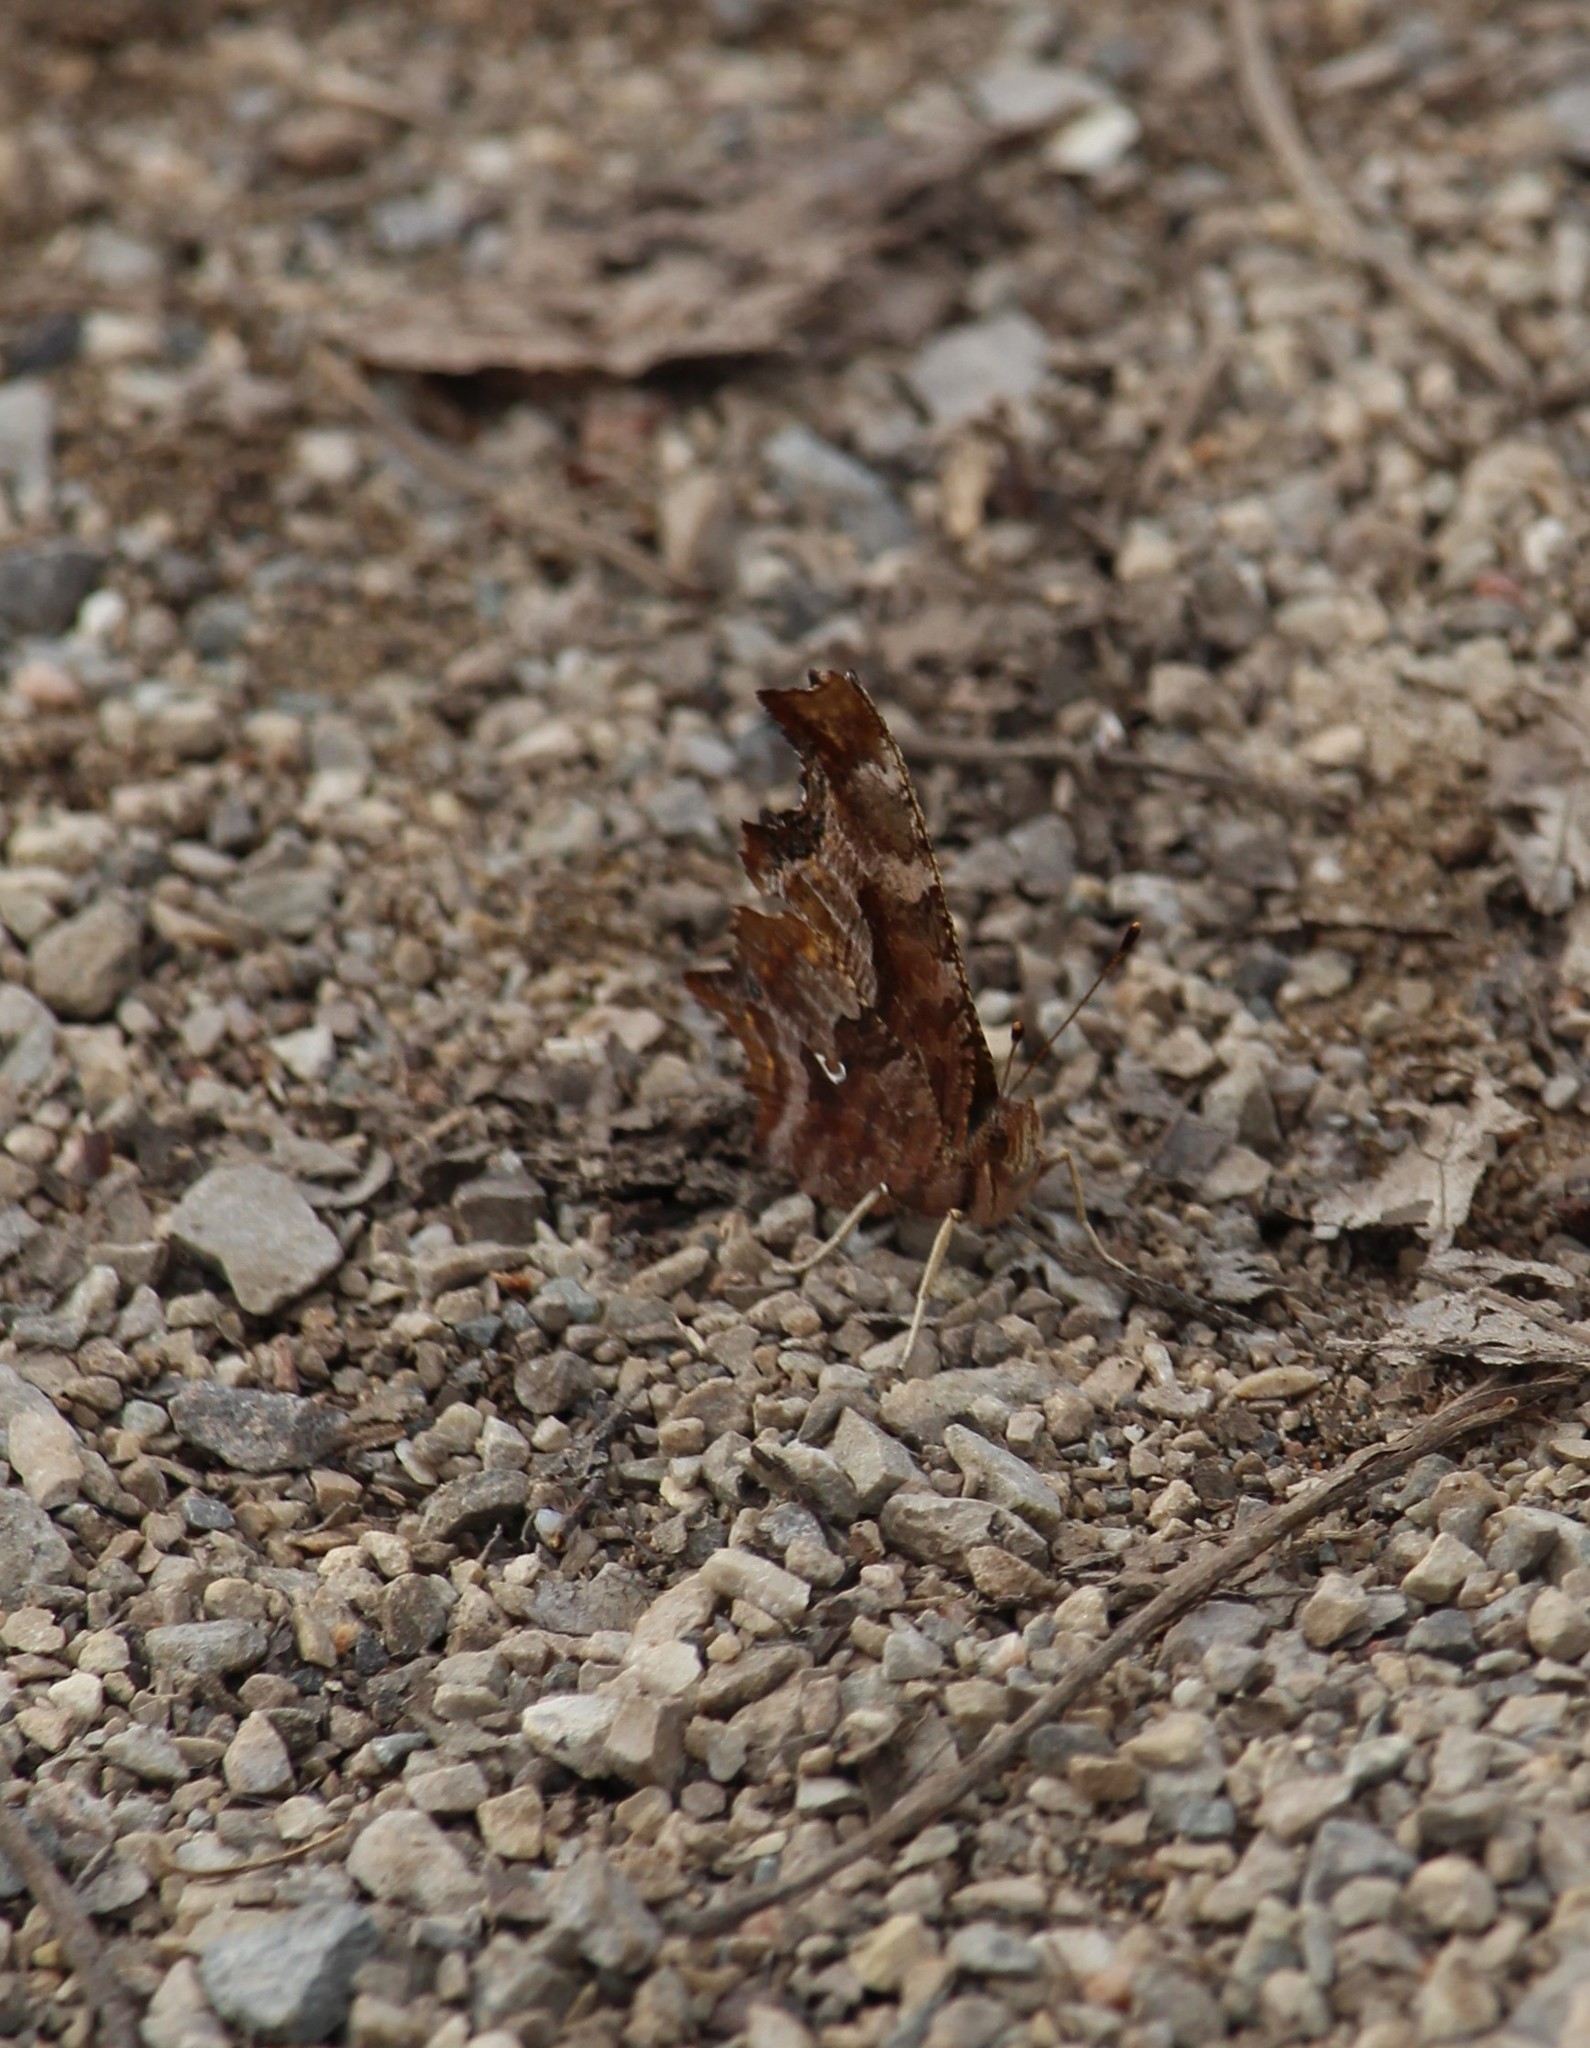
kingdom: Animalia
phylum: Arthropoda
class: Insecta
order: Lepidoptera
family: Nymphalidae
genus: Polygonia
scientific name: Polygonia comma
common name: Eastern comma
